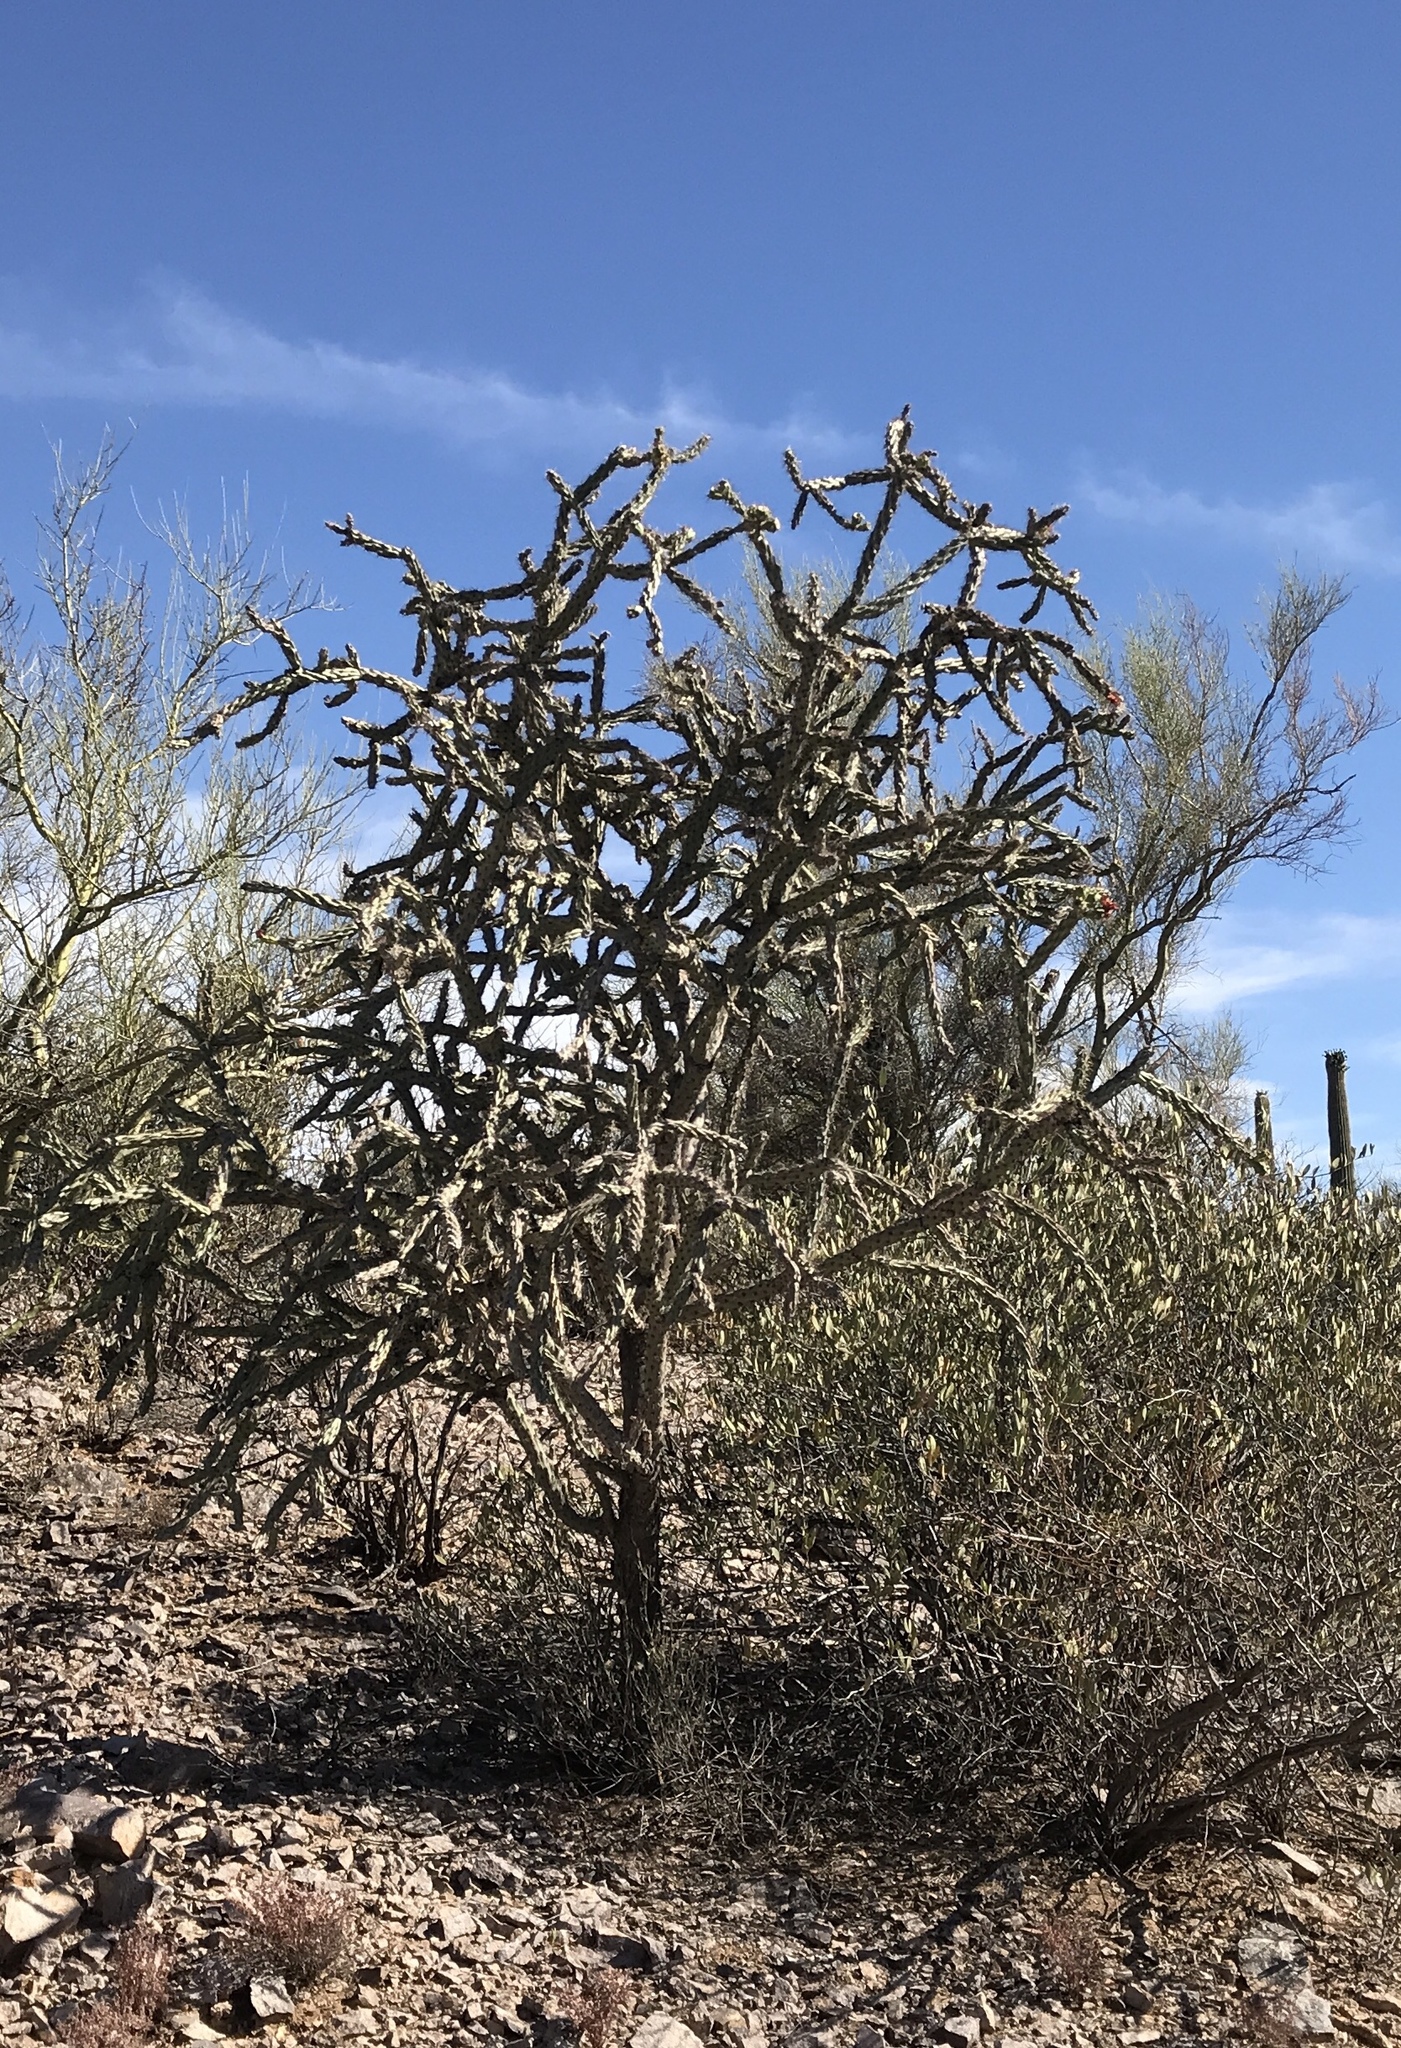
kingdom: Plantae
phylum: Tracheophyta
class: Magnoliopsida
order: Caryophyllales
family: Cactaceae
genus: Cylindropuntia
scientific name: Cylindropuntia thurberi
